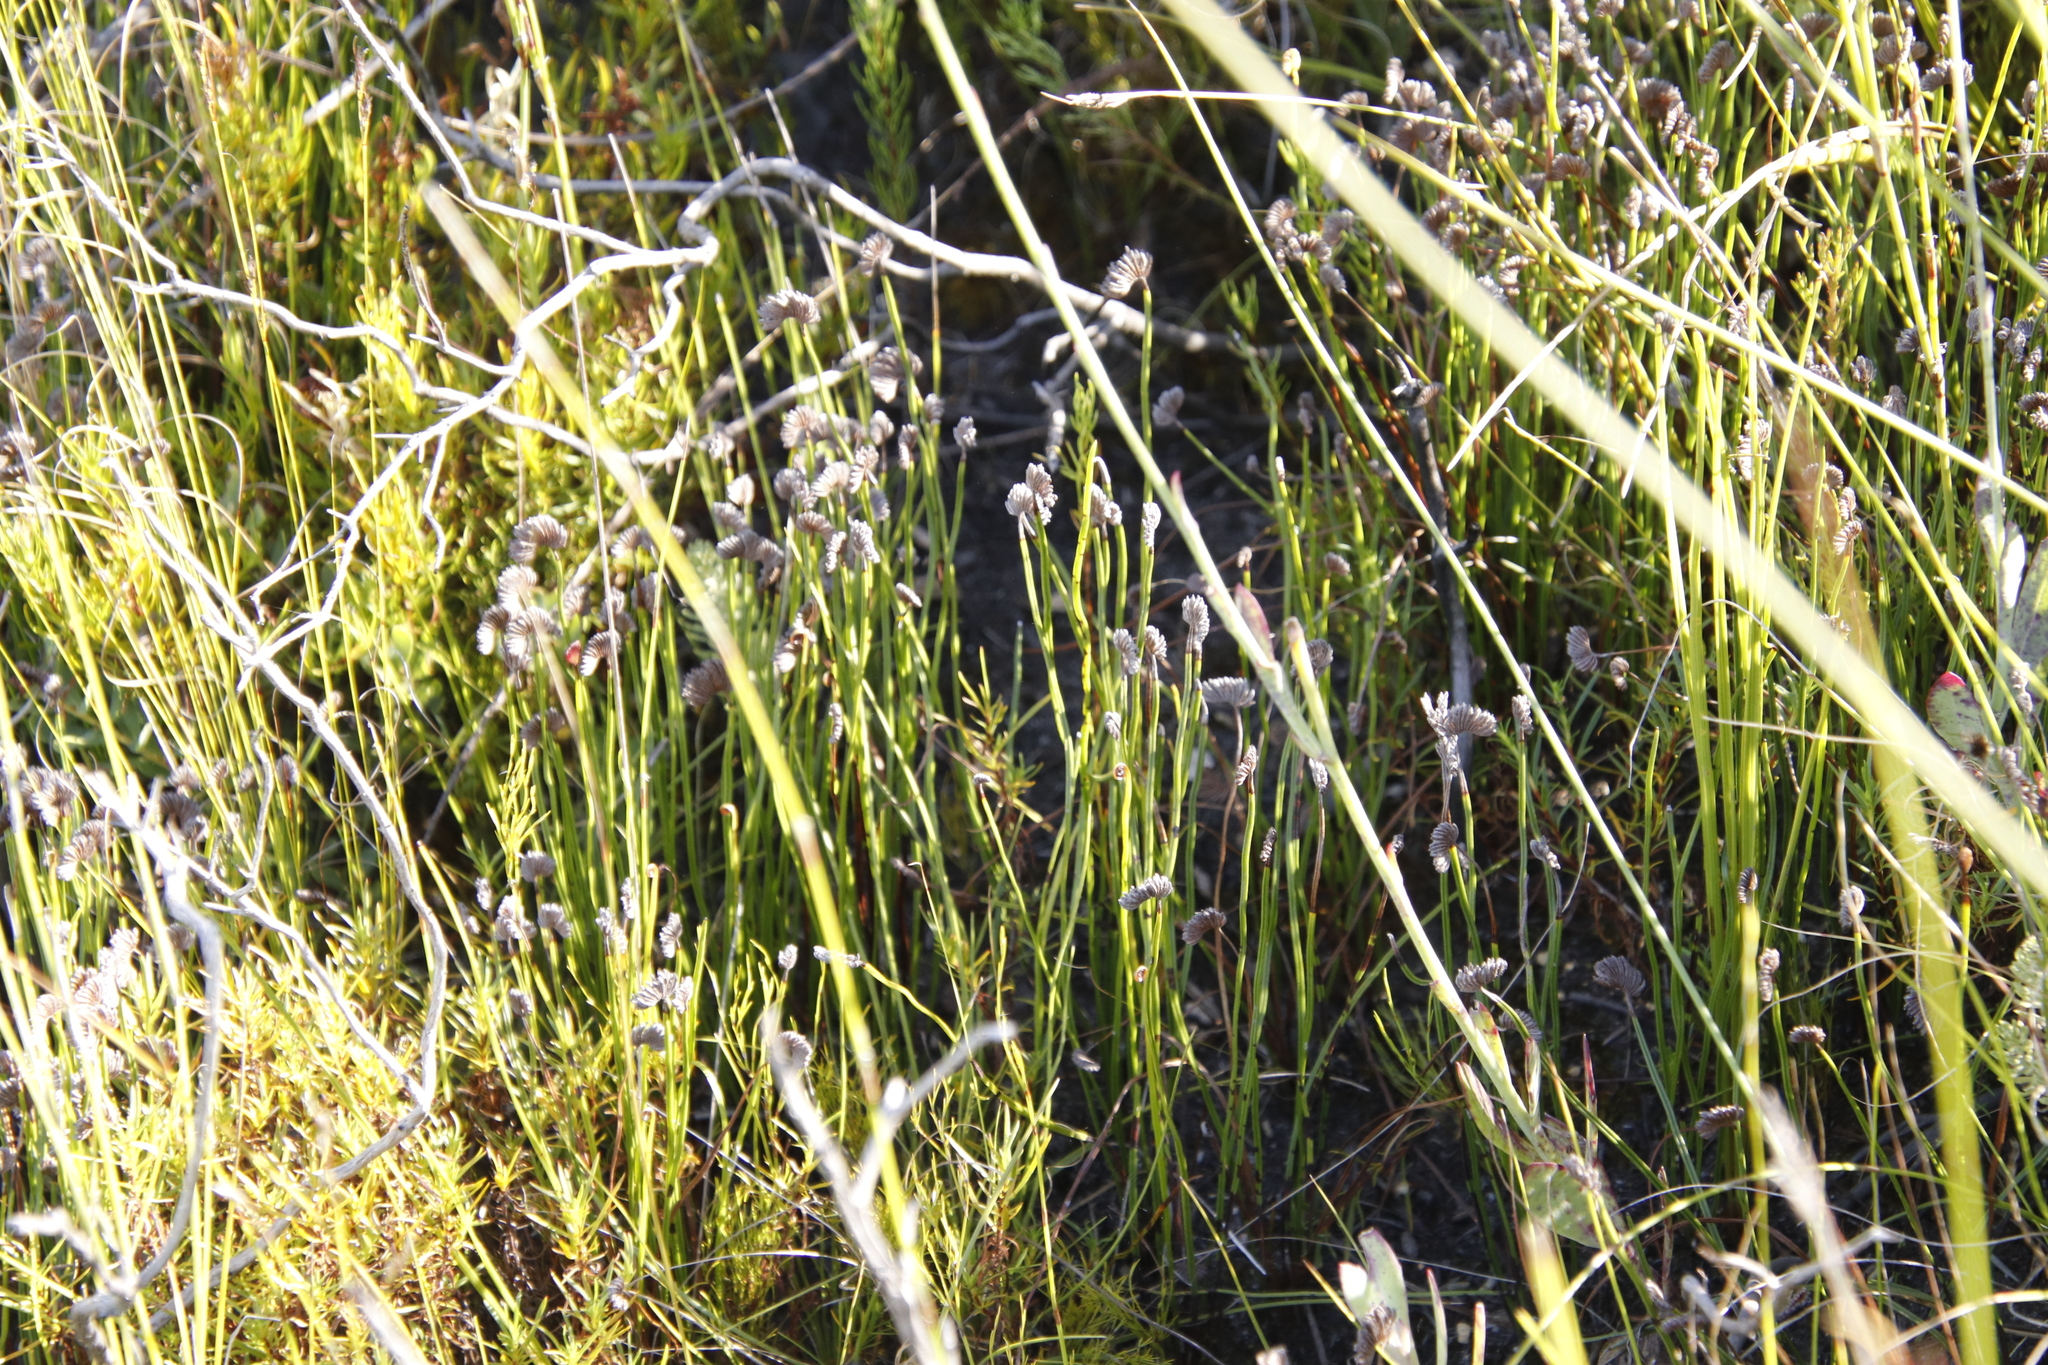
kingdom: Plantae
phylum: Tracheophyta
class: Polypodiopsida
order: Schizaeales
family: Schizaeaceae
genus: Schizaea
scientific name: Schizaea pectinata
